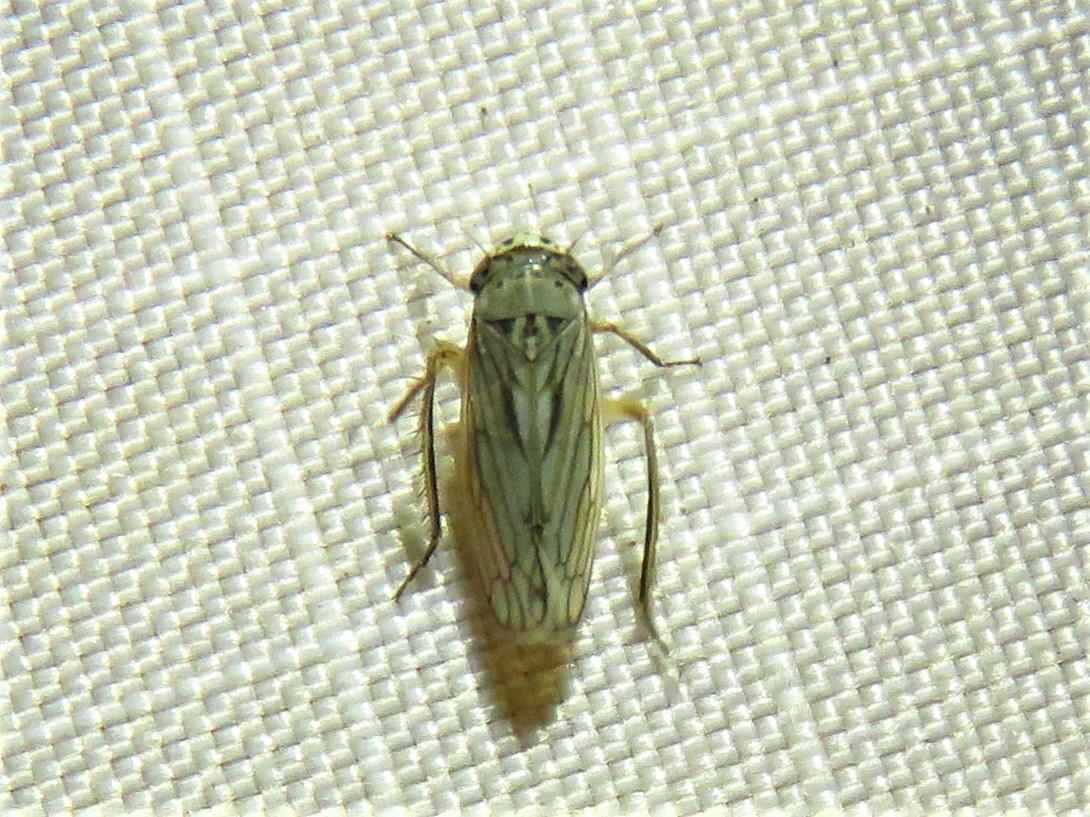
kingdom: Animalia
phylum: Arthropoda
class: Insecta
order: Hemiptera
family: Cicadellidae
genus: Exitianus
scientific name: Exitianus exitiosus
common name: Gray lawn leafhopper
